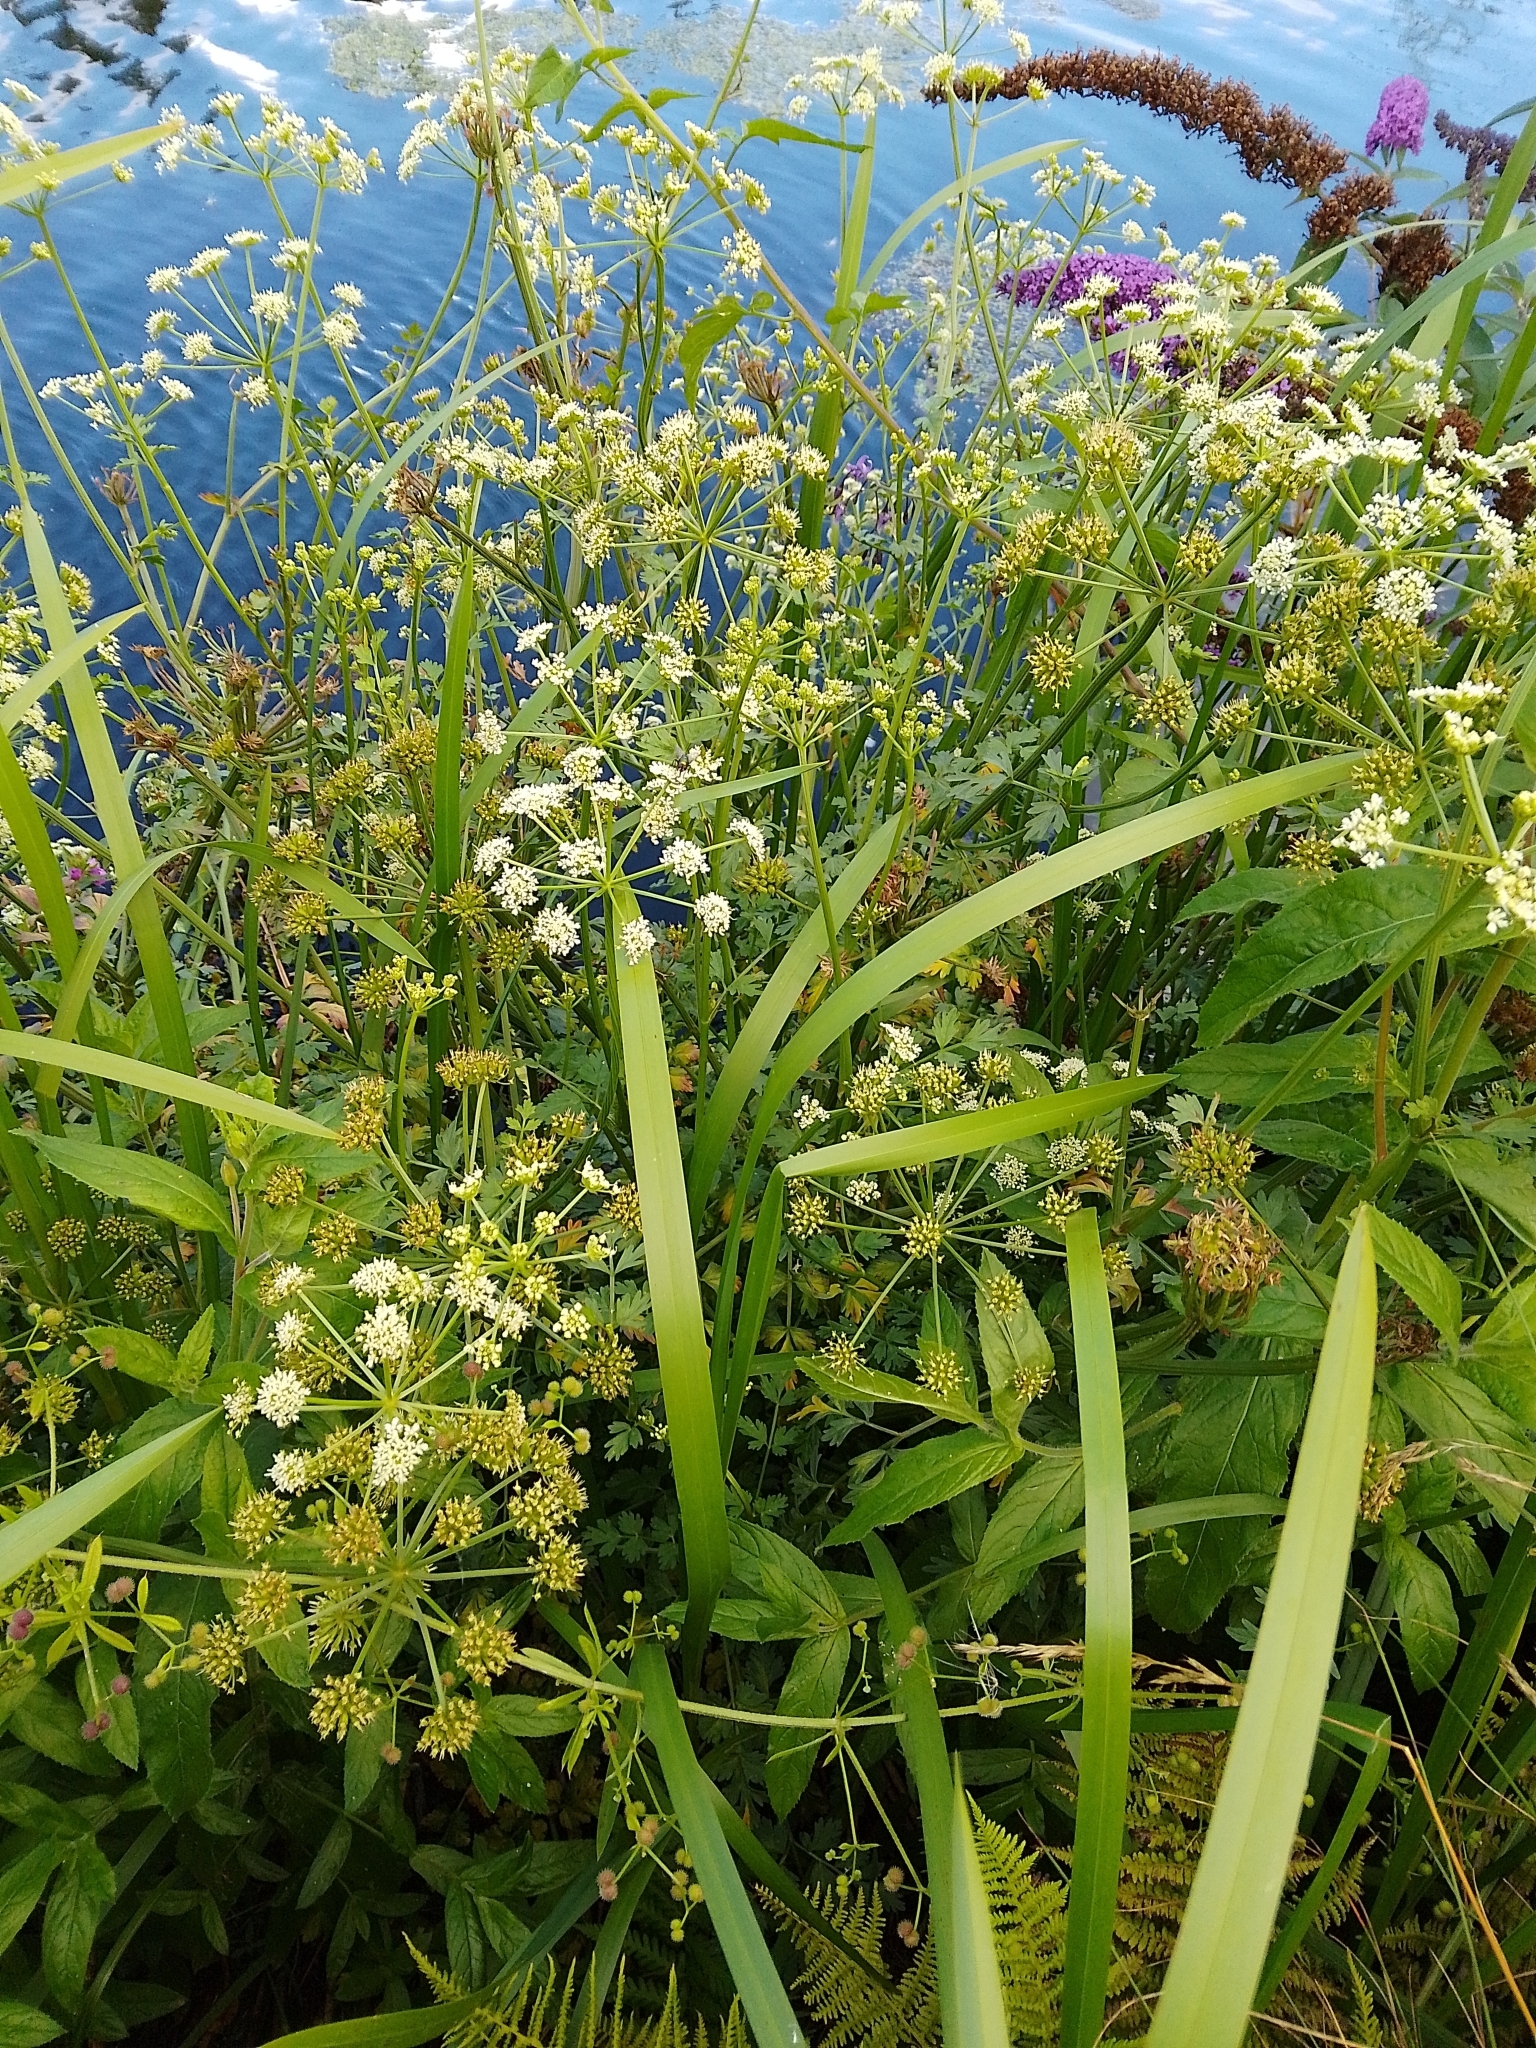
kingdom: Plantae
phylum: Tracheophyta
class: Magnoliopsida
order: Apiales
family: Apiaceae
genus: Oenanthe
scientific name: Oenanthe crocata
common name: Hemlock water-dropwort
